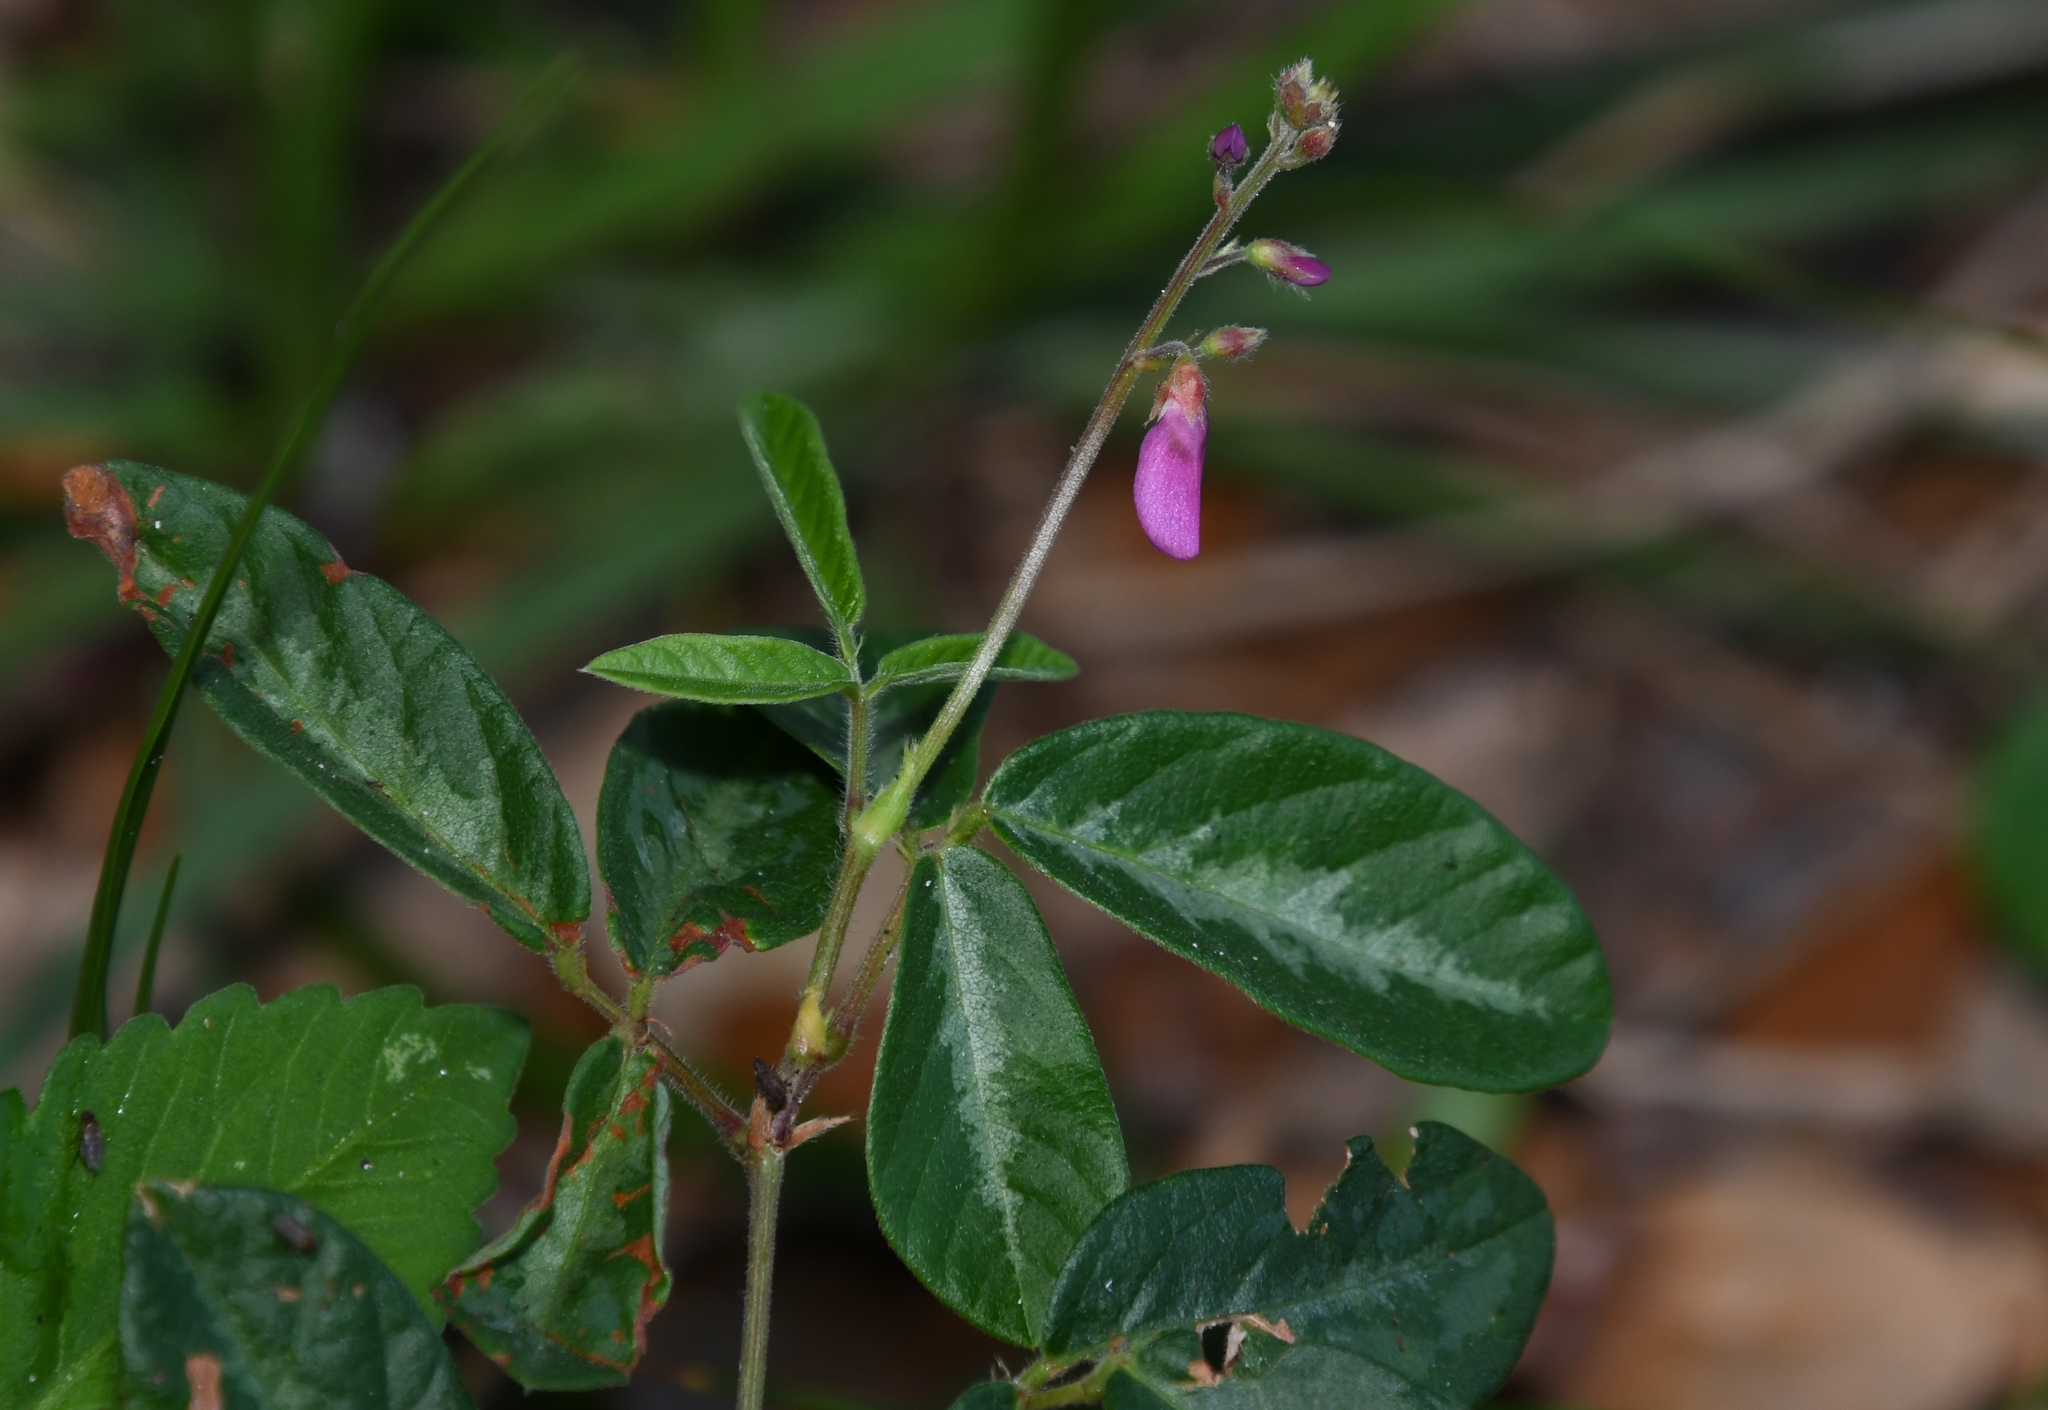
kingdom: Plantae
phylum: Tracheophyta
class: Magnoliopsida
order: Fabales
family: Fabaceae
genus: Desmodium
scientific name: Desmodium incanum
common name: Tickclover
